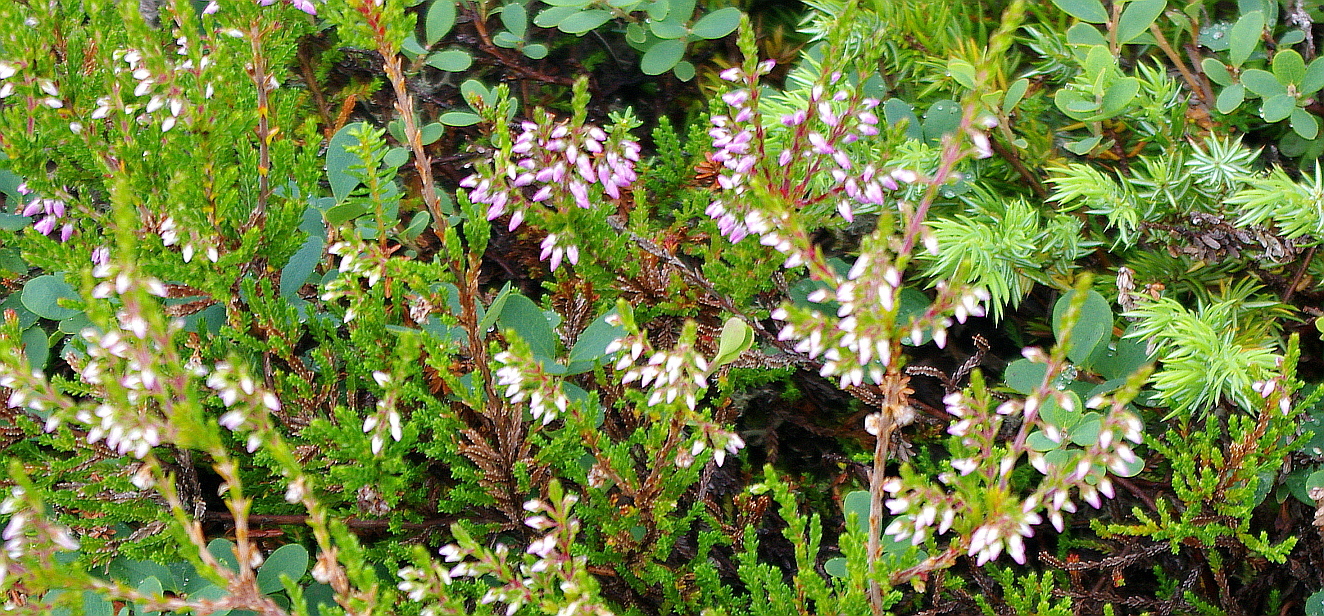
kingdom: Plantae
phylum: Tracheophyta
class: Magnoliopsida
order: Ericales
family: Ericaceae
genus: Calluna
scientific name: Calluna vulgaris
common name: Heather
